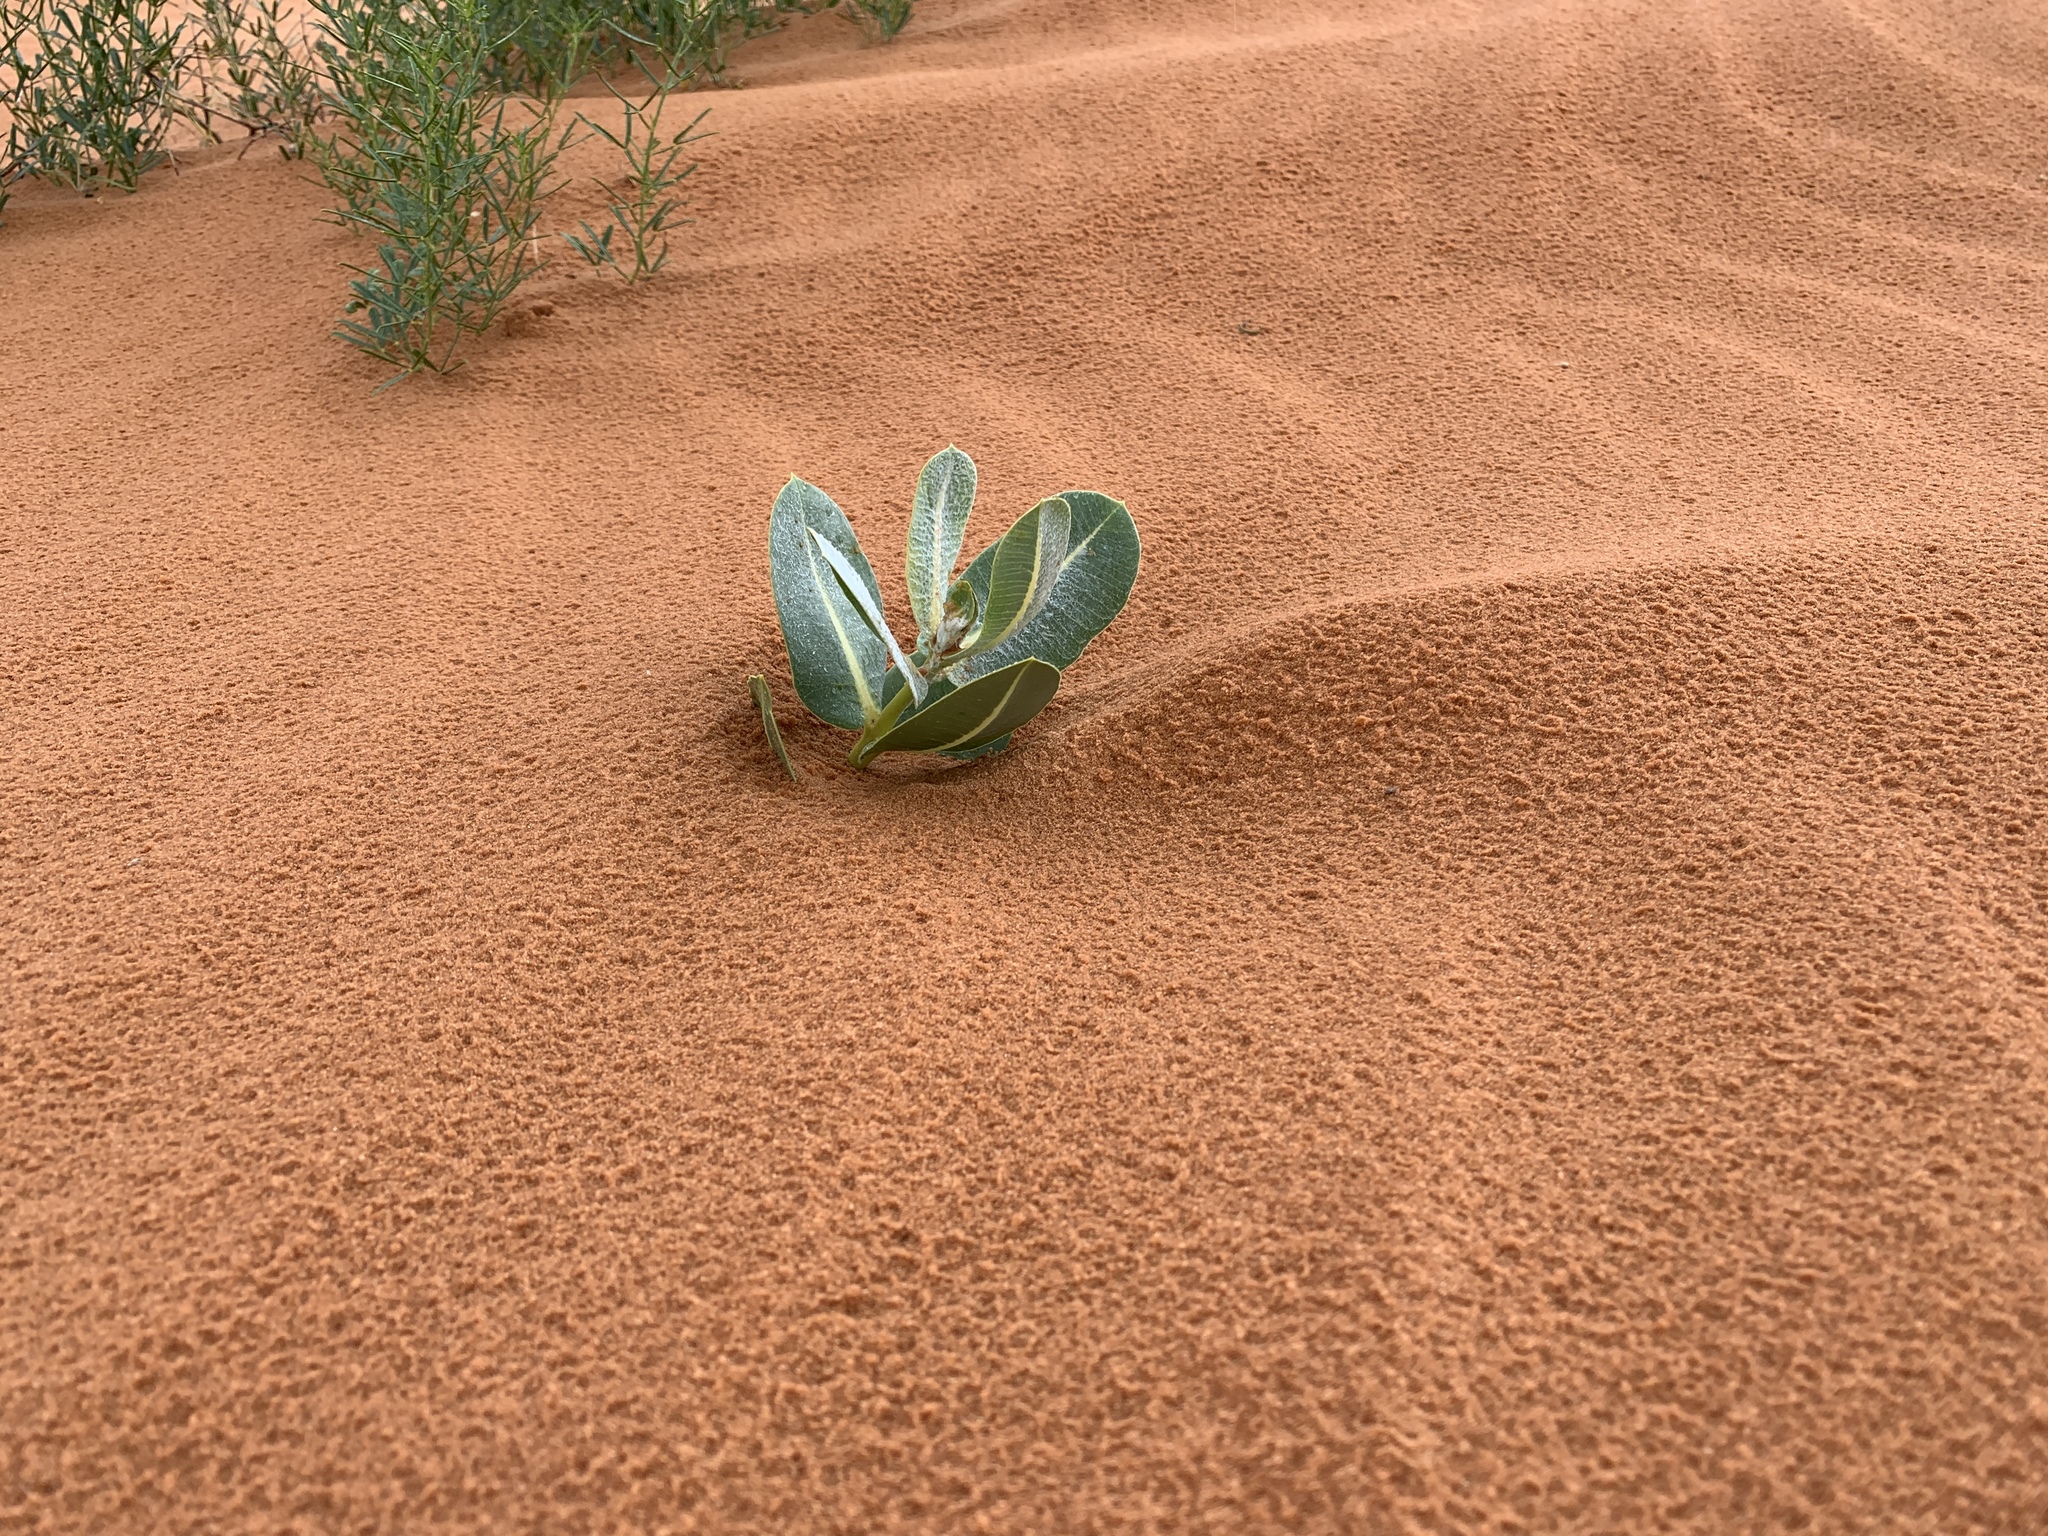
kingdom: Plantae
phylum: Tracheophyta
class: Magnoliopsida
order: Gentianales
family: Apocynaceae
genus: Asclepias
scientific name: Asclepias welshii
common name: Welsch's milkweed
